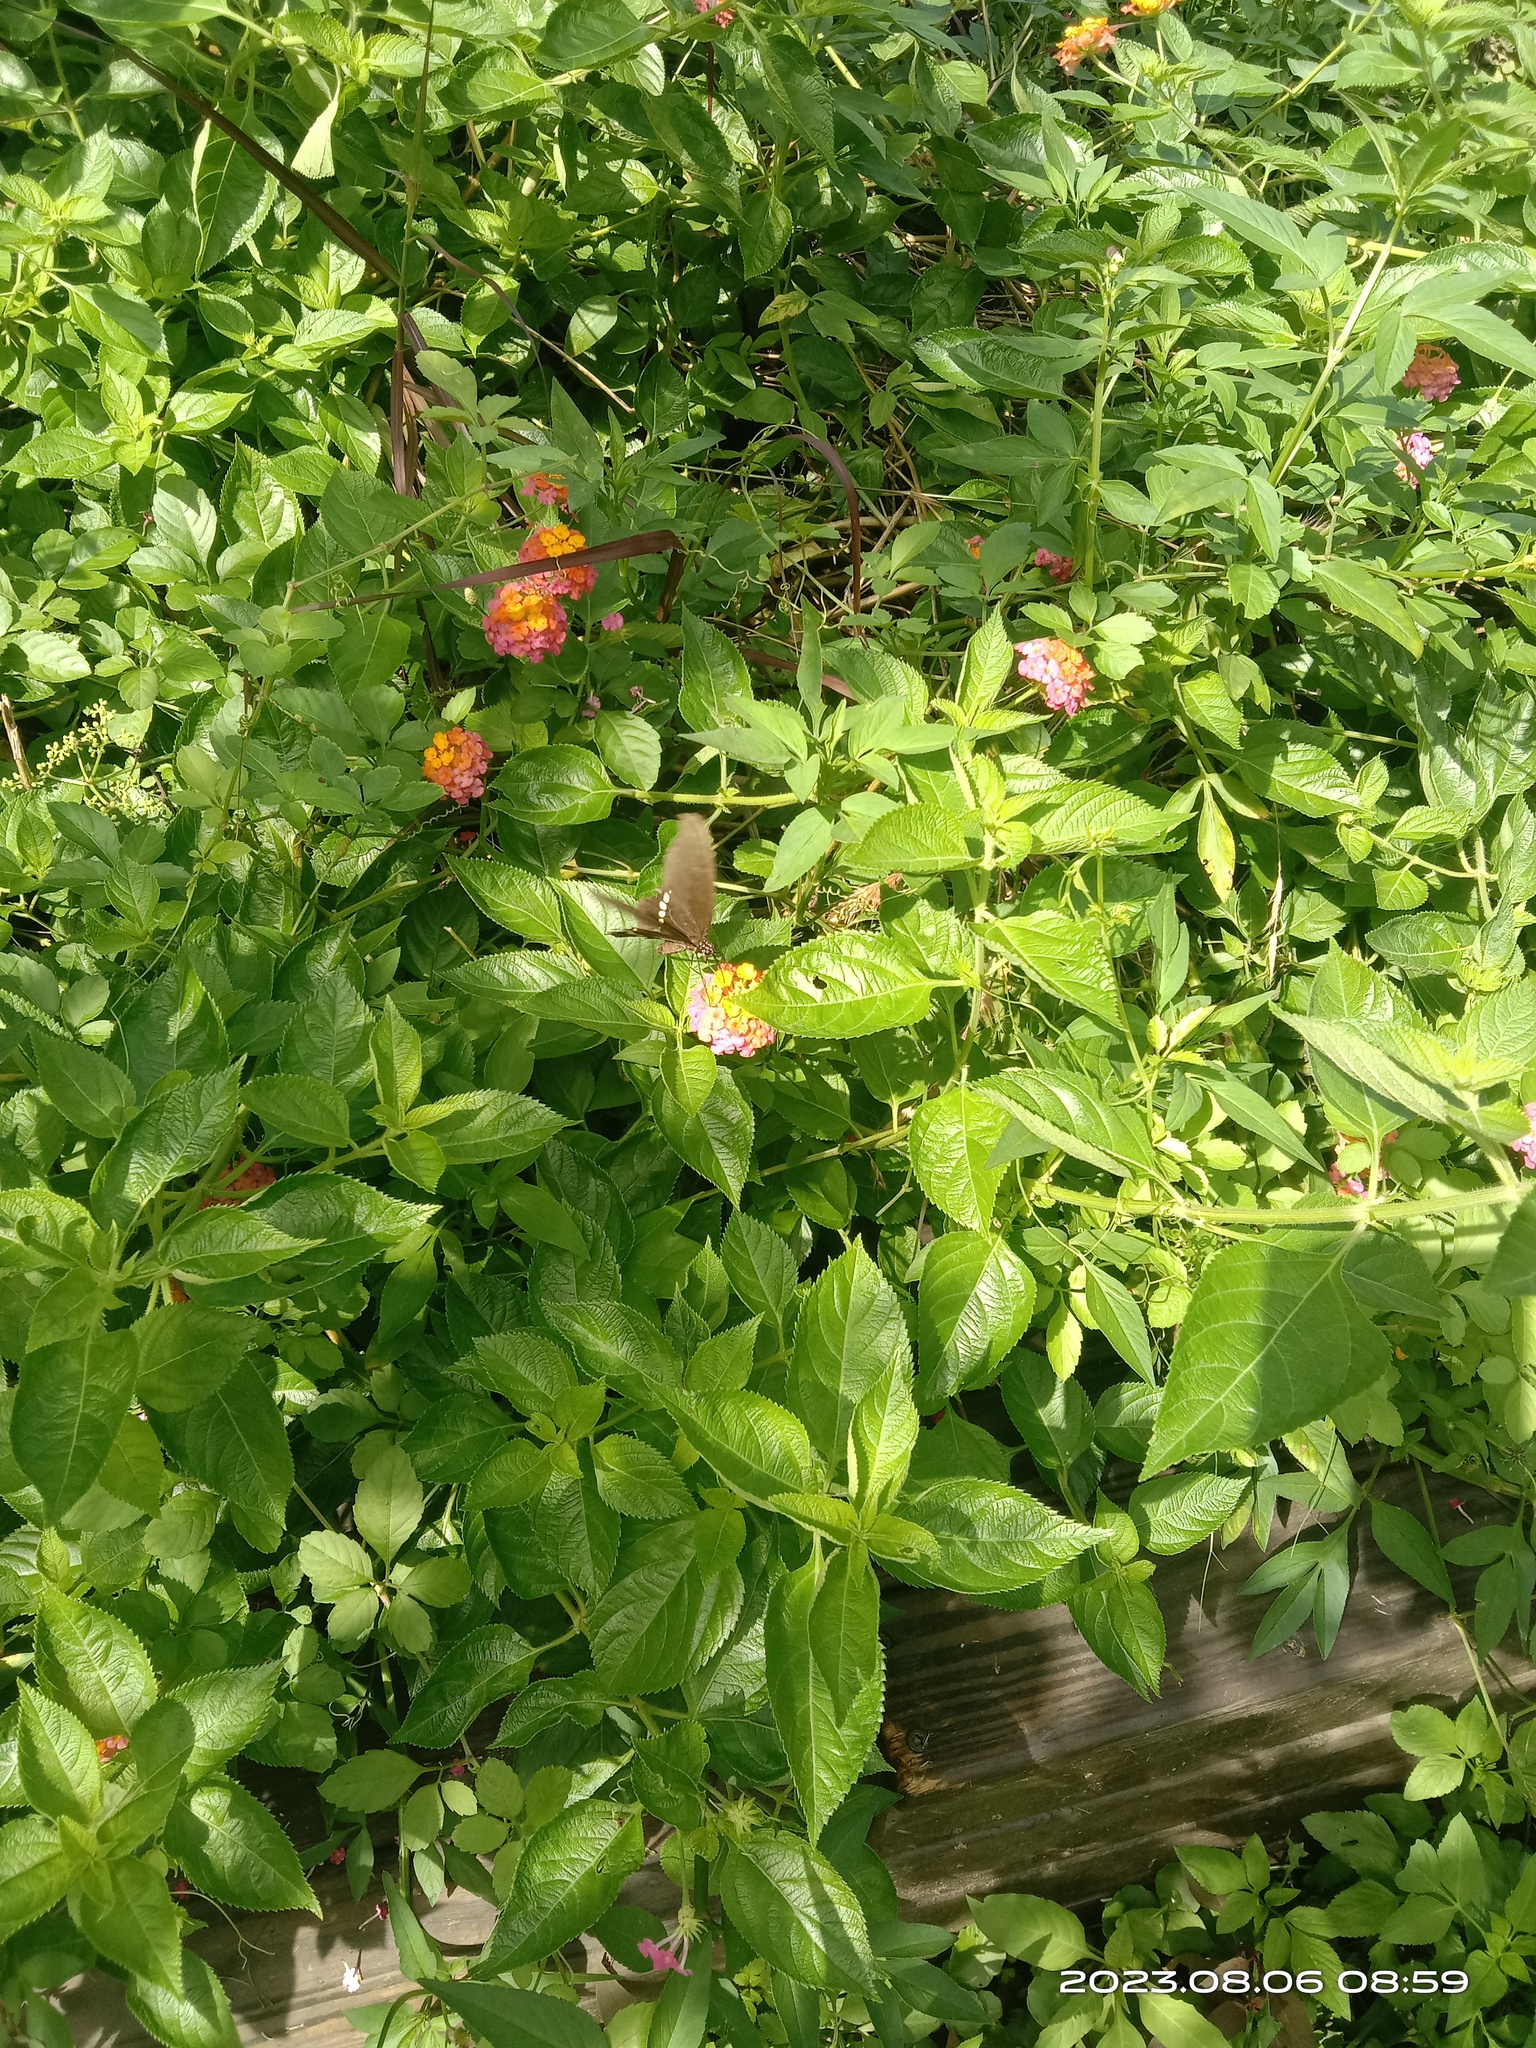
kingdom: Animalia
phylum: Arthropoda
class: Insecta
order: Lepidoptera
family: Papilionidae
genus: Papilio
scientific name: Papilio polytes
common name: Common mormon
